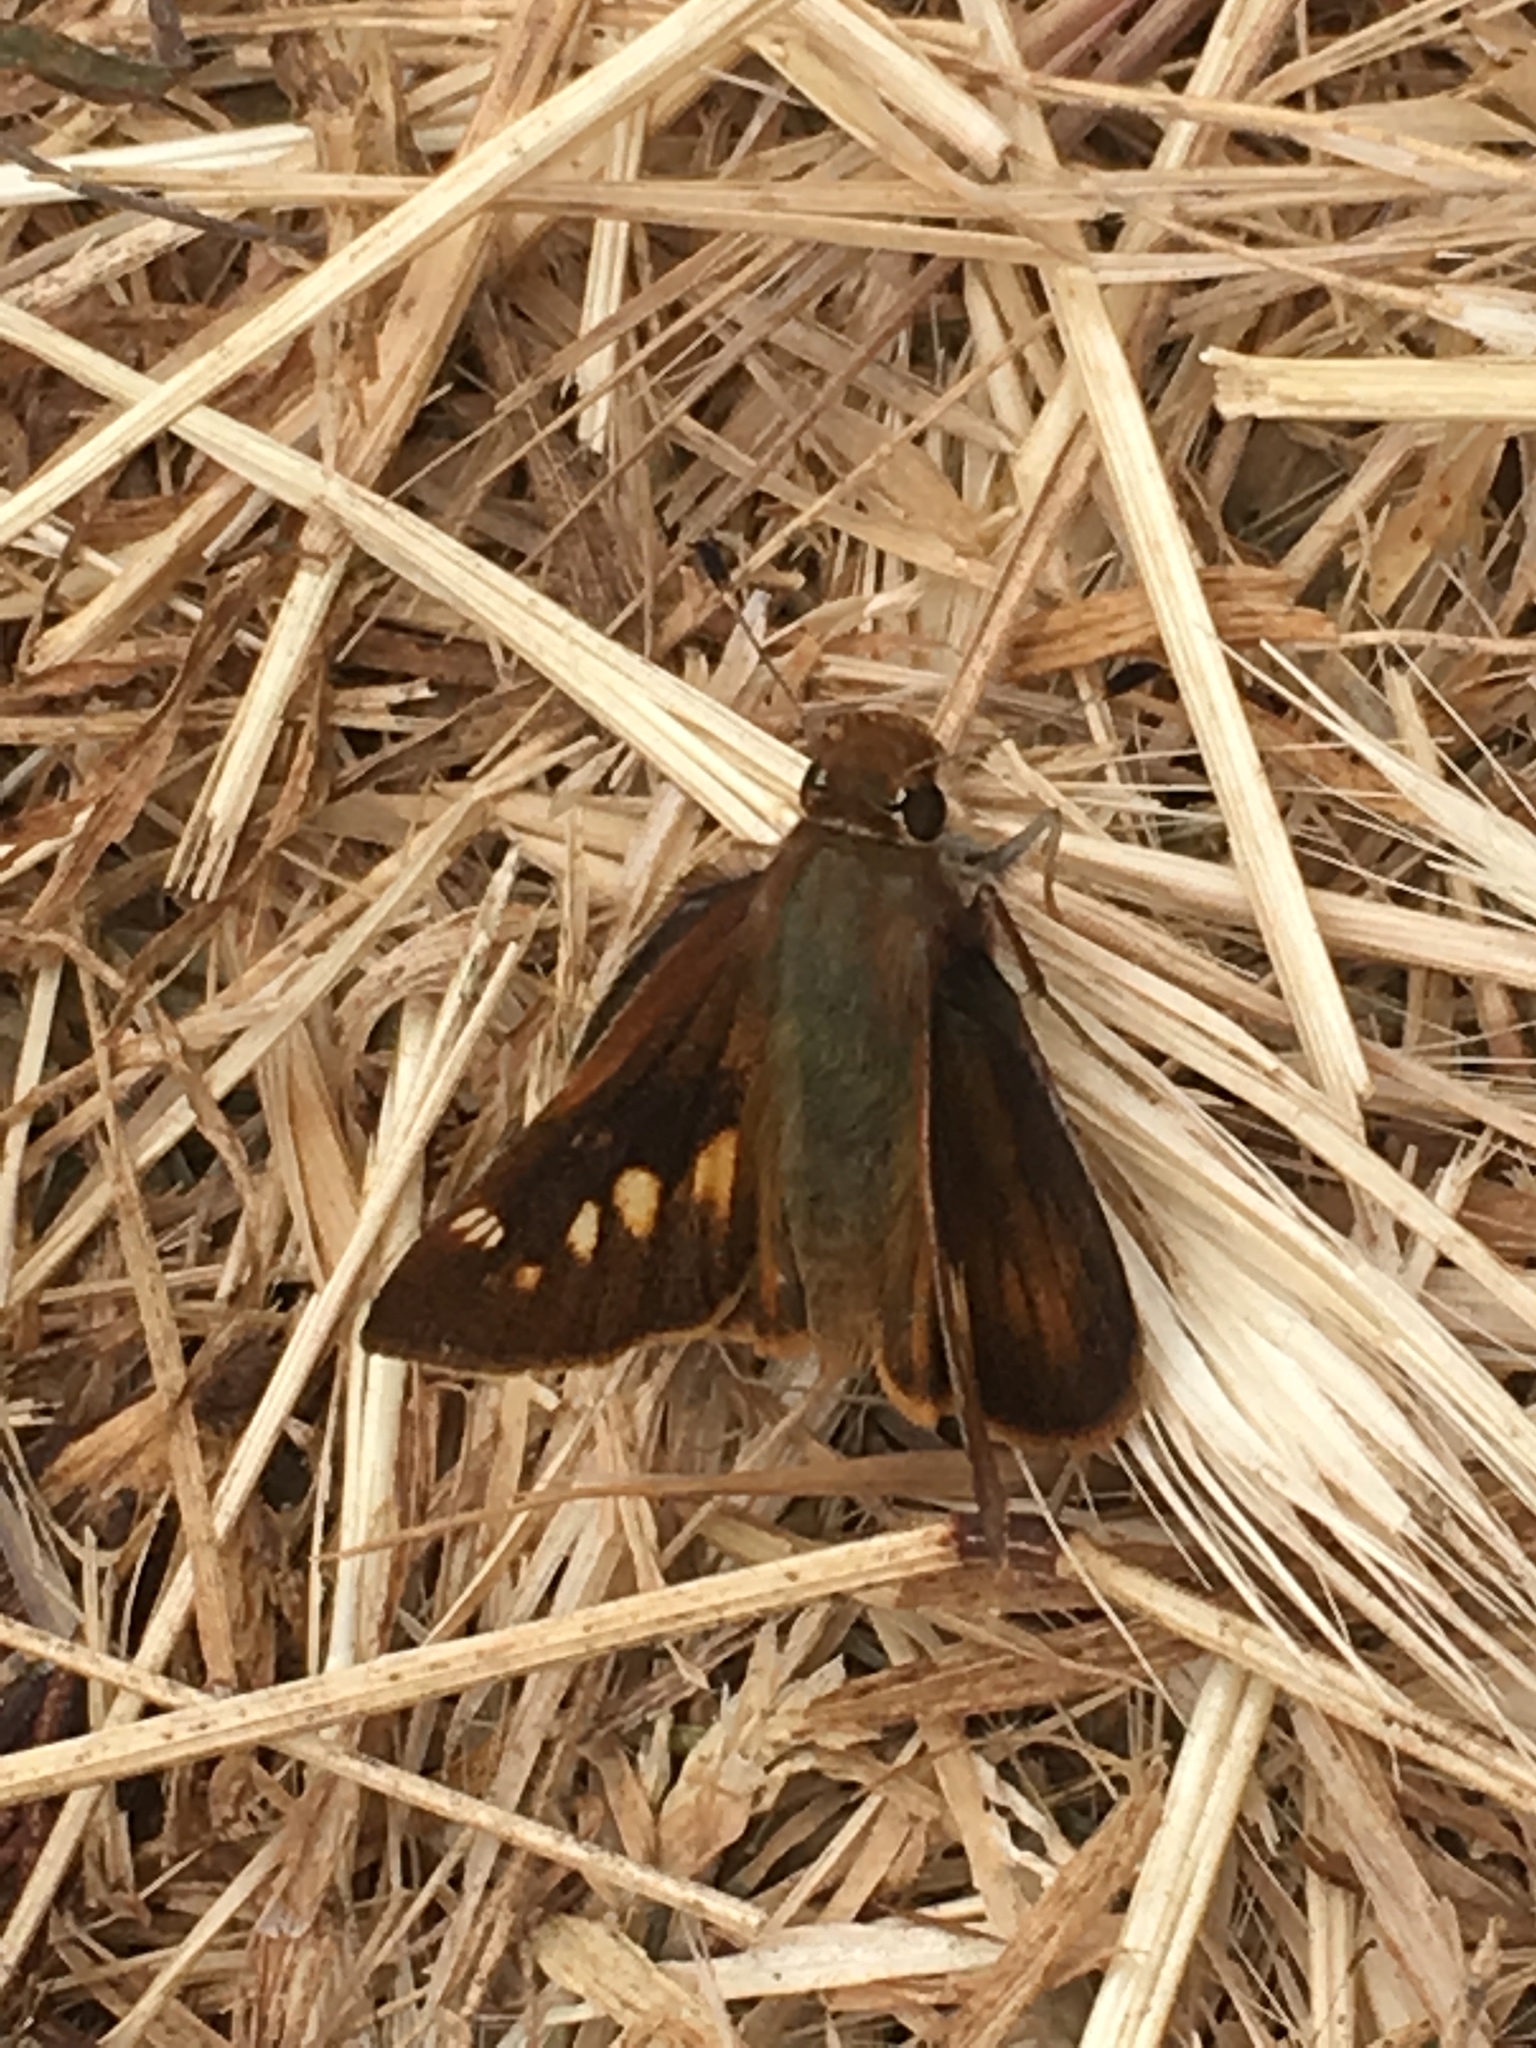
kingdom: Animalia
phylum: Arthropoda
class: Insecta
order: Lepidoptera
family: Hesperiidae
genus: Lon
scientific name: Lon melane
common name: Umber skipper
